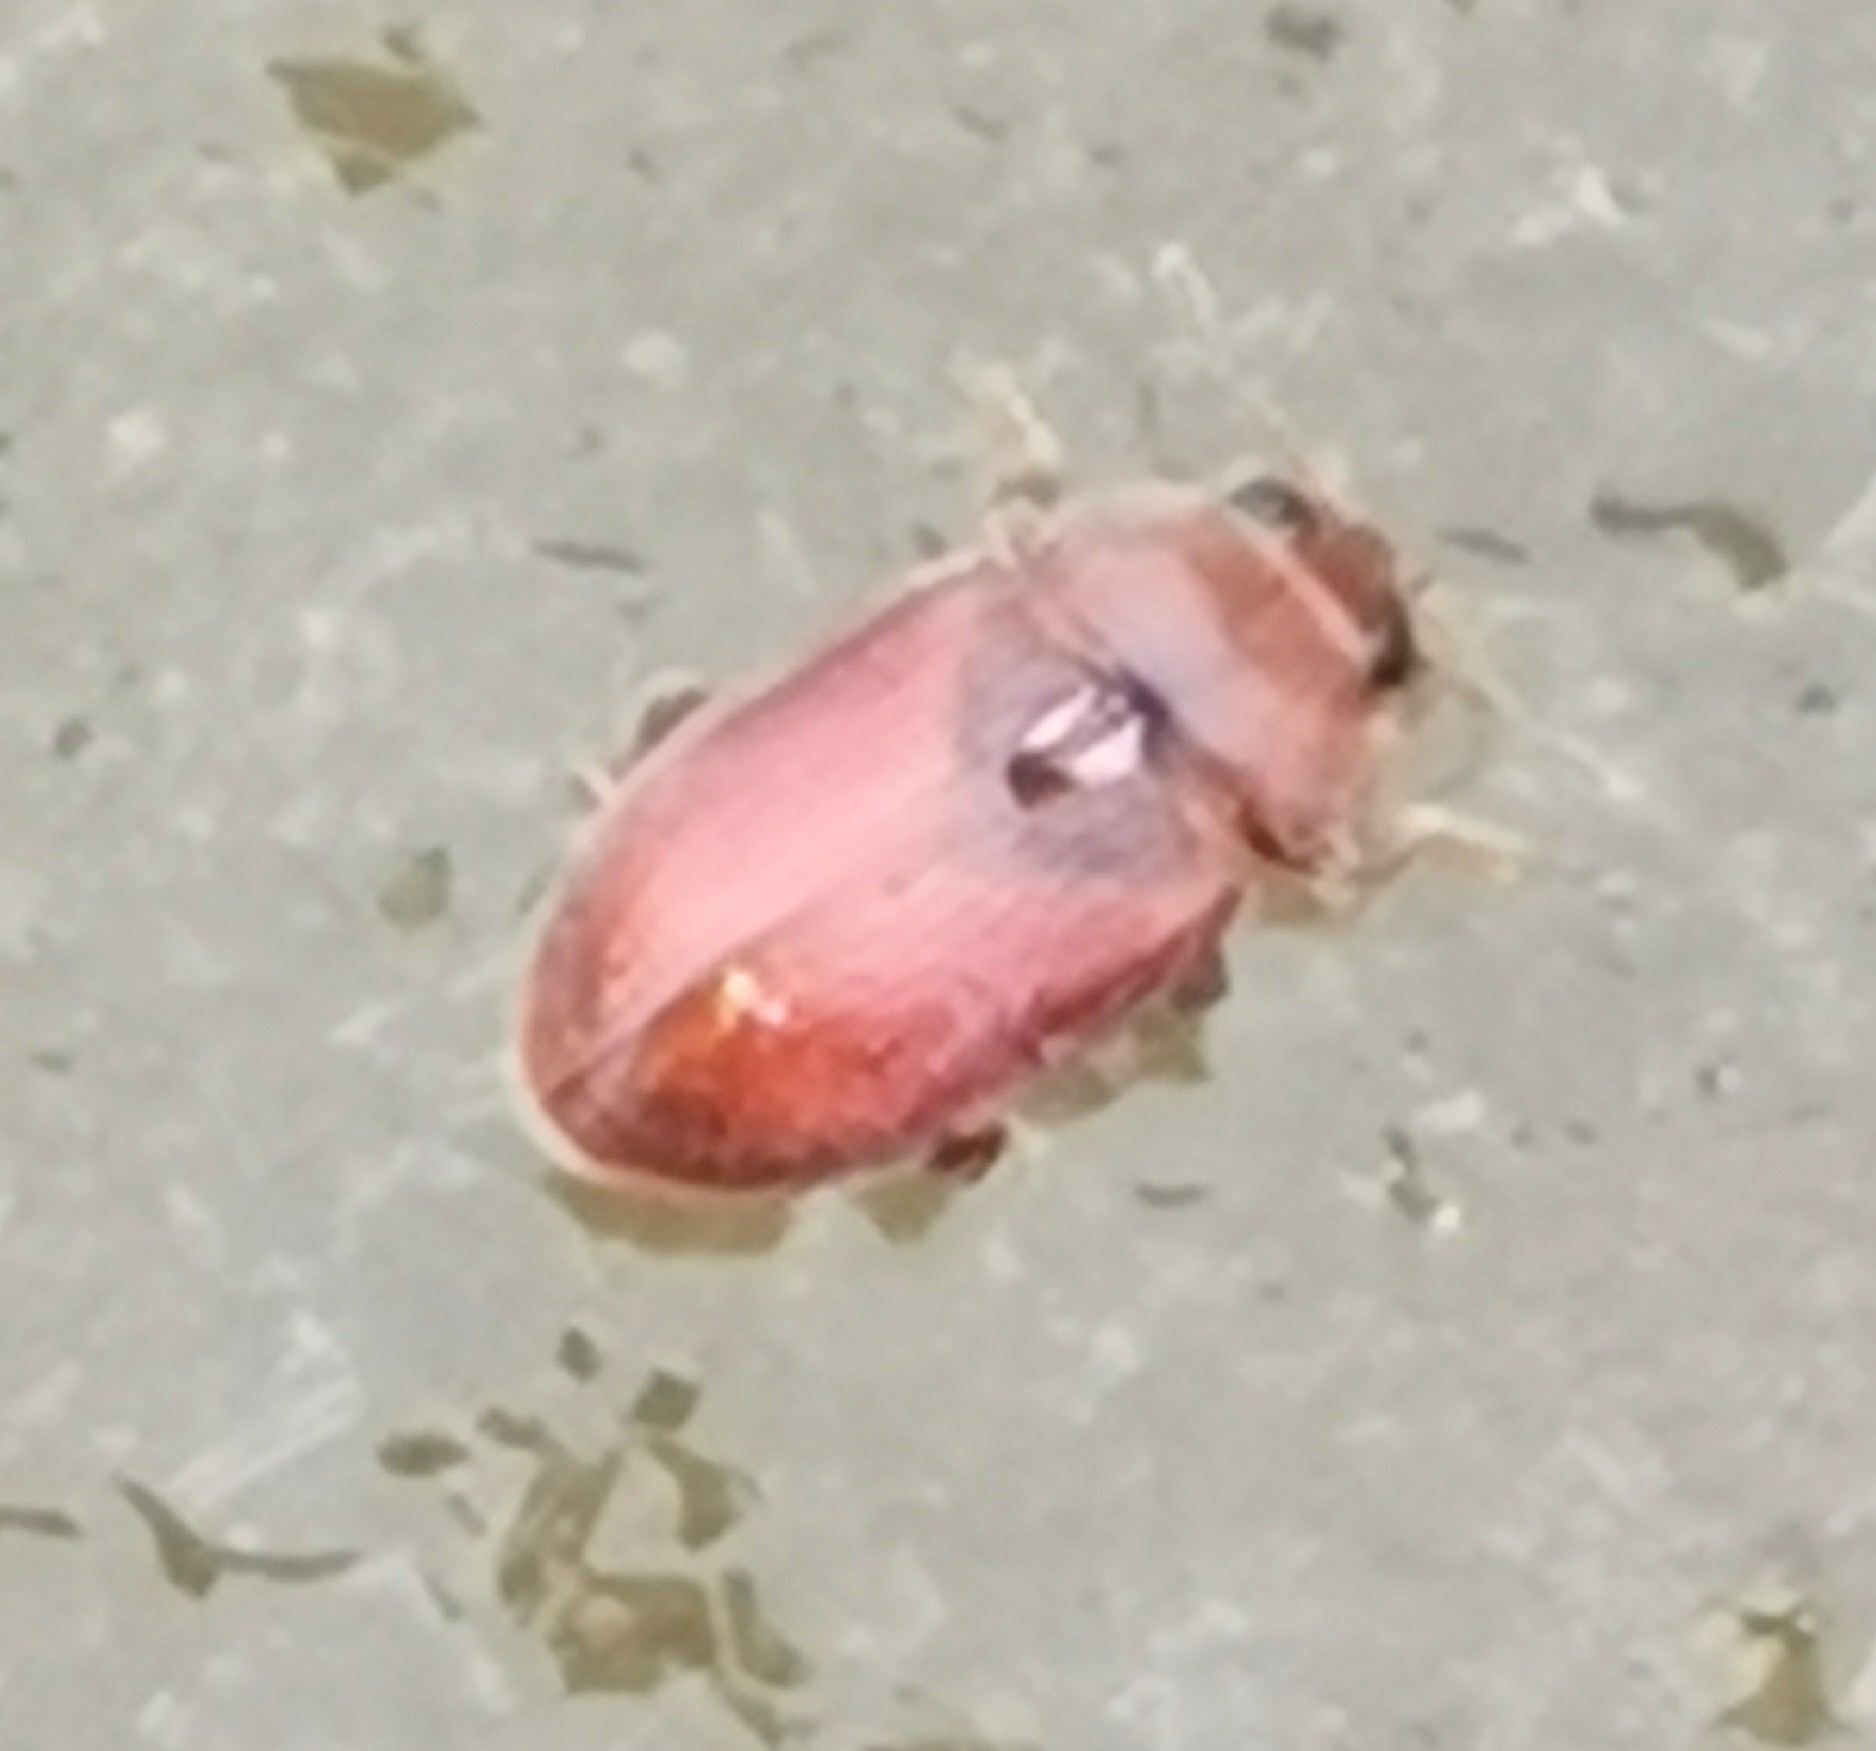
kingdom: Animalia
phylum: Arthropoda
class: Insecta
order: Coleoptera
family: Coccinellidae
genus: Coccidula
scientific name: Coccidula rufa
